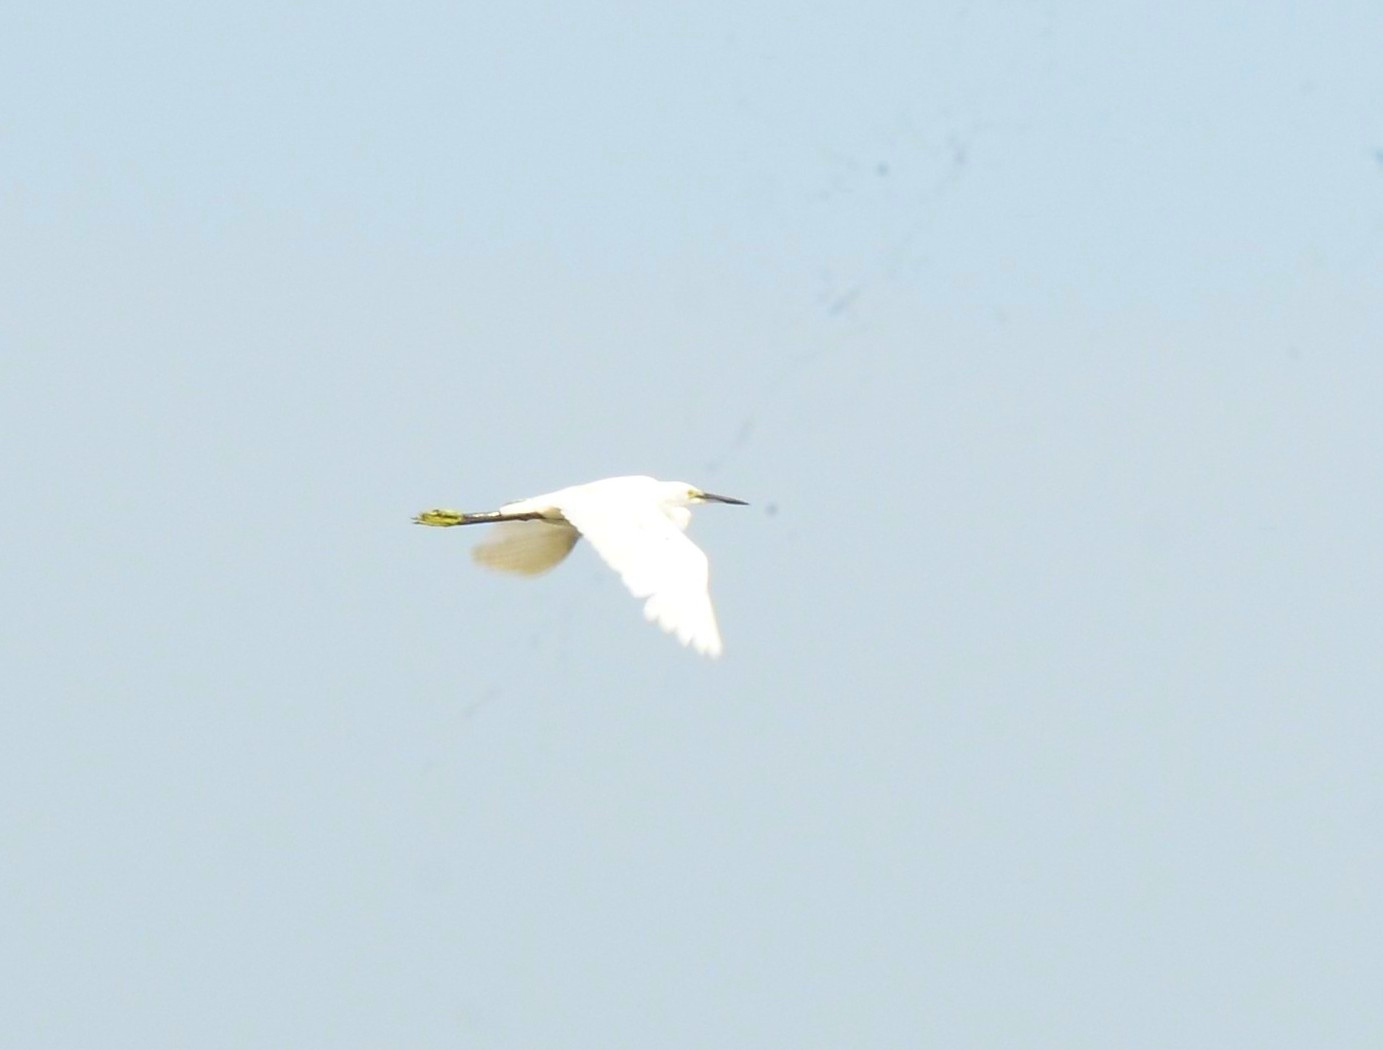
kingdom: Animalia
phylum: Chordata
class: Aves
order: Pelecaniformes
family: Ardeidae
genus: Egretta
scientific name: Egretta garzetta
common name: Little egret
